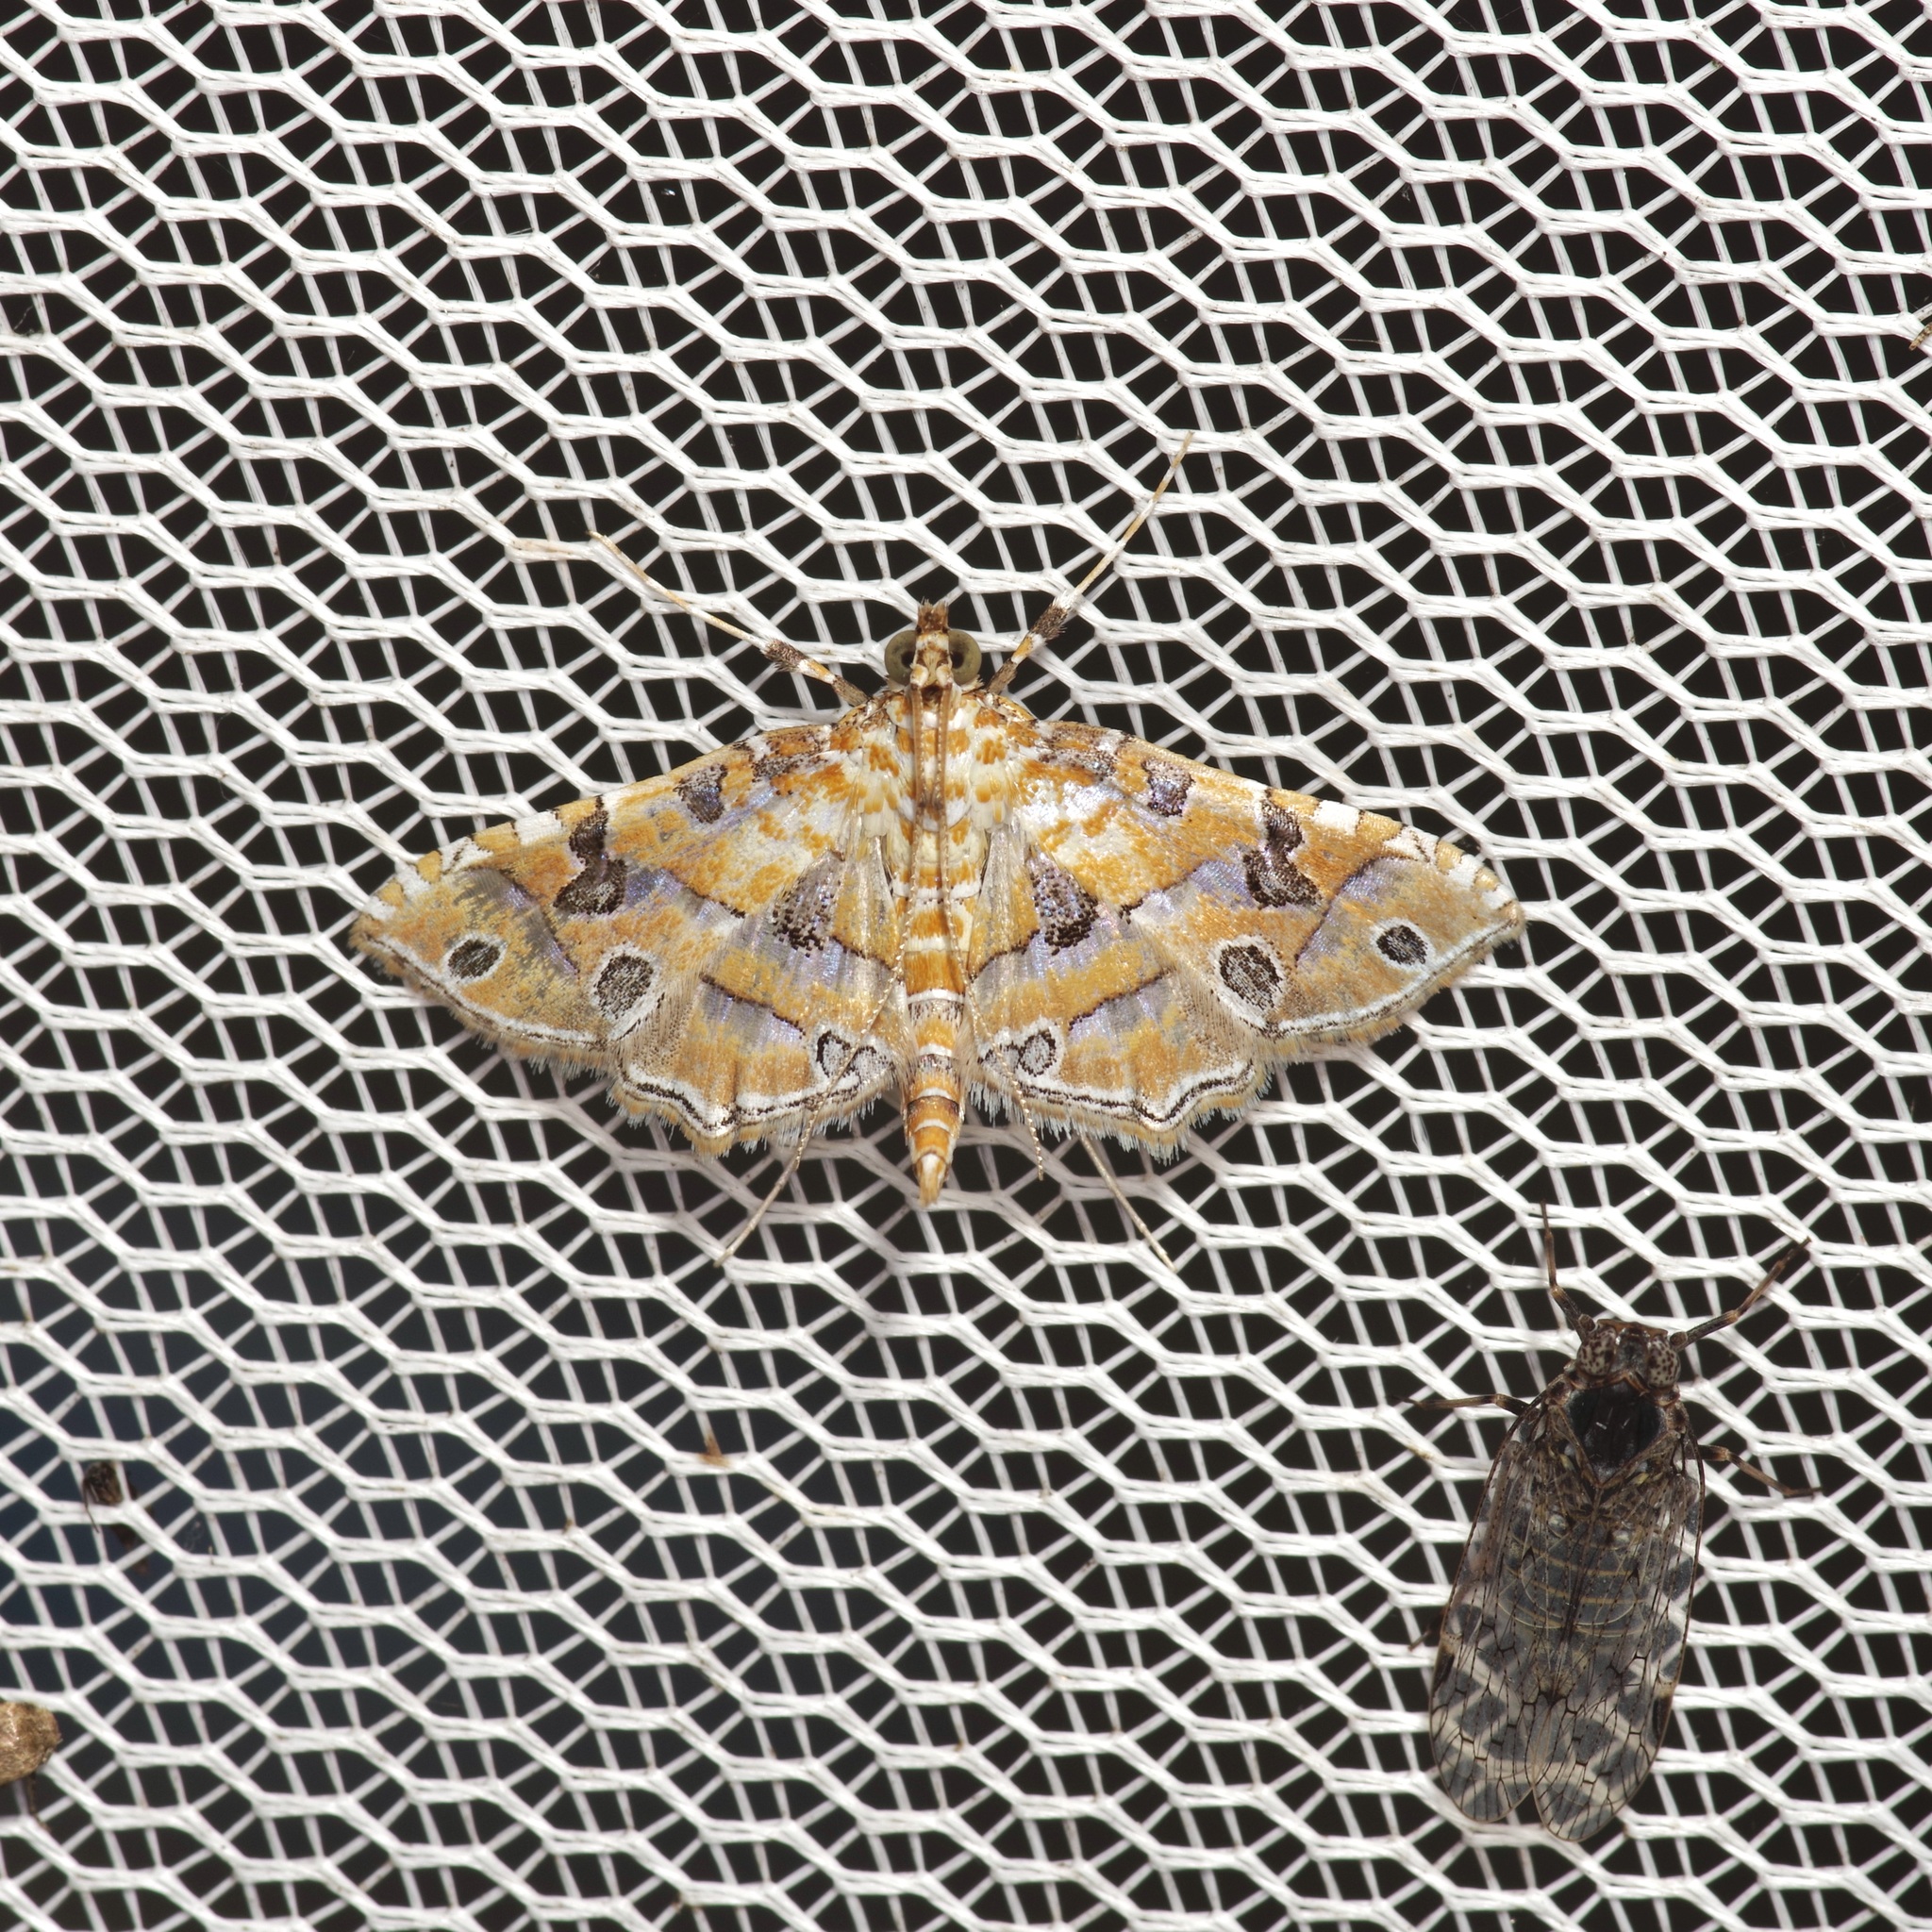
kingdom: Animalia
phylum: Arthropoda
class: Insecta
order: Lepidoptera
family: Crambidae
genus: Ommatospila
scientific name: Ommatospila narcaeusalis
